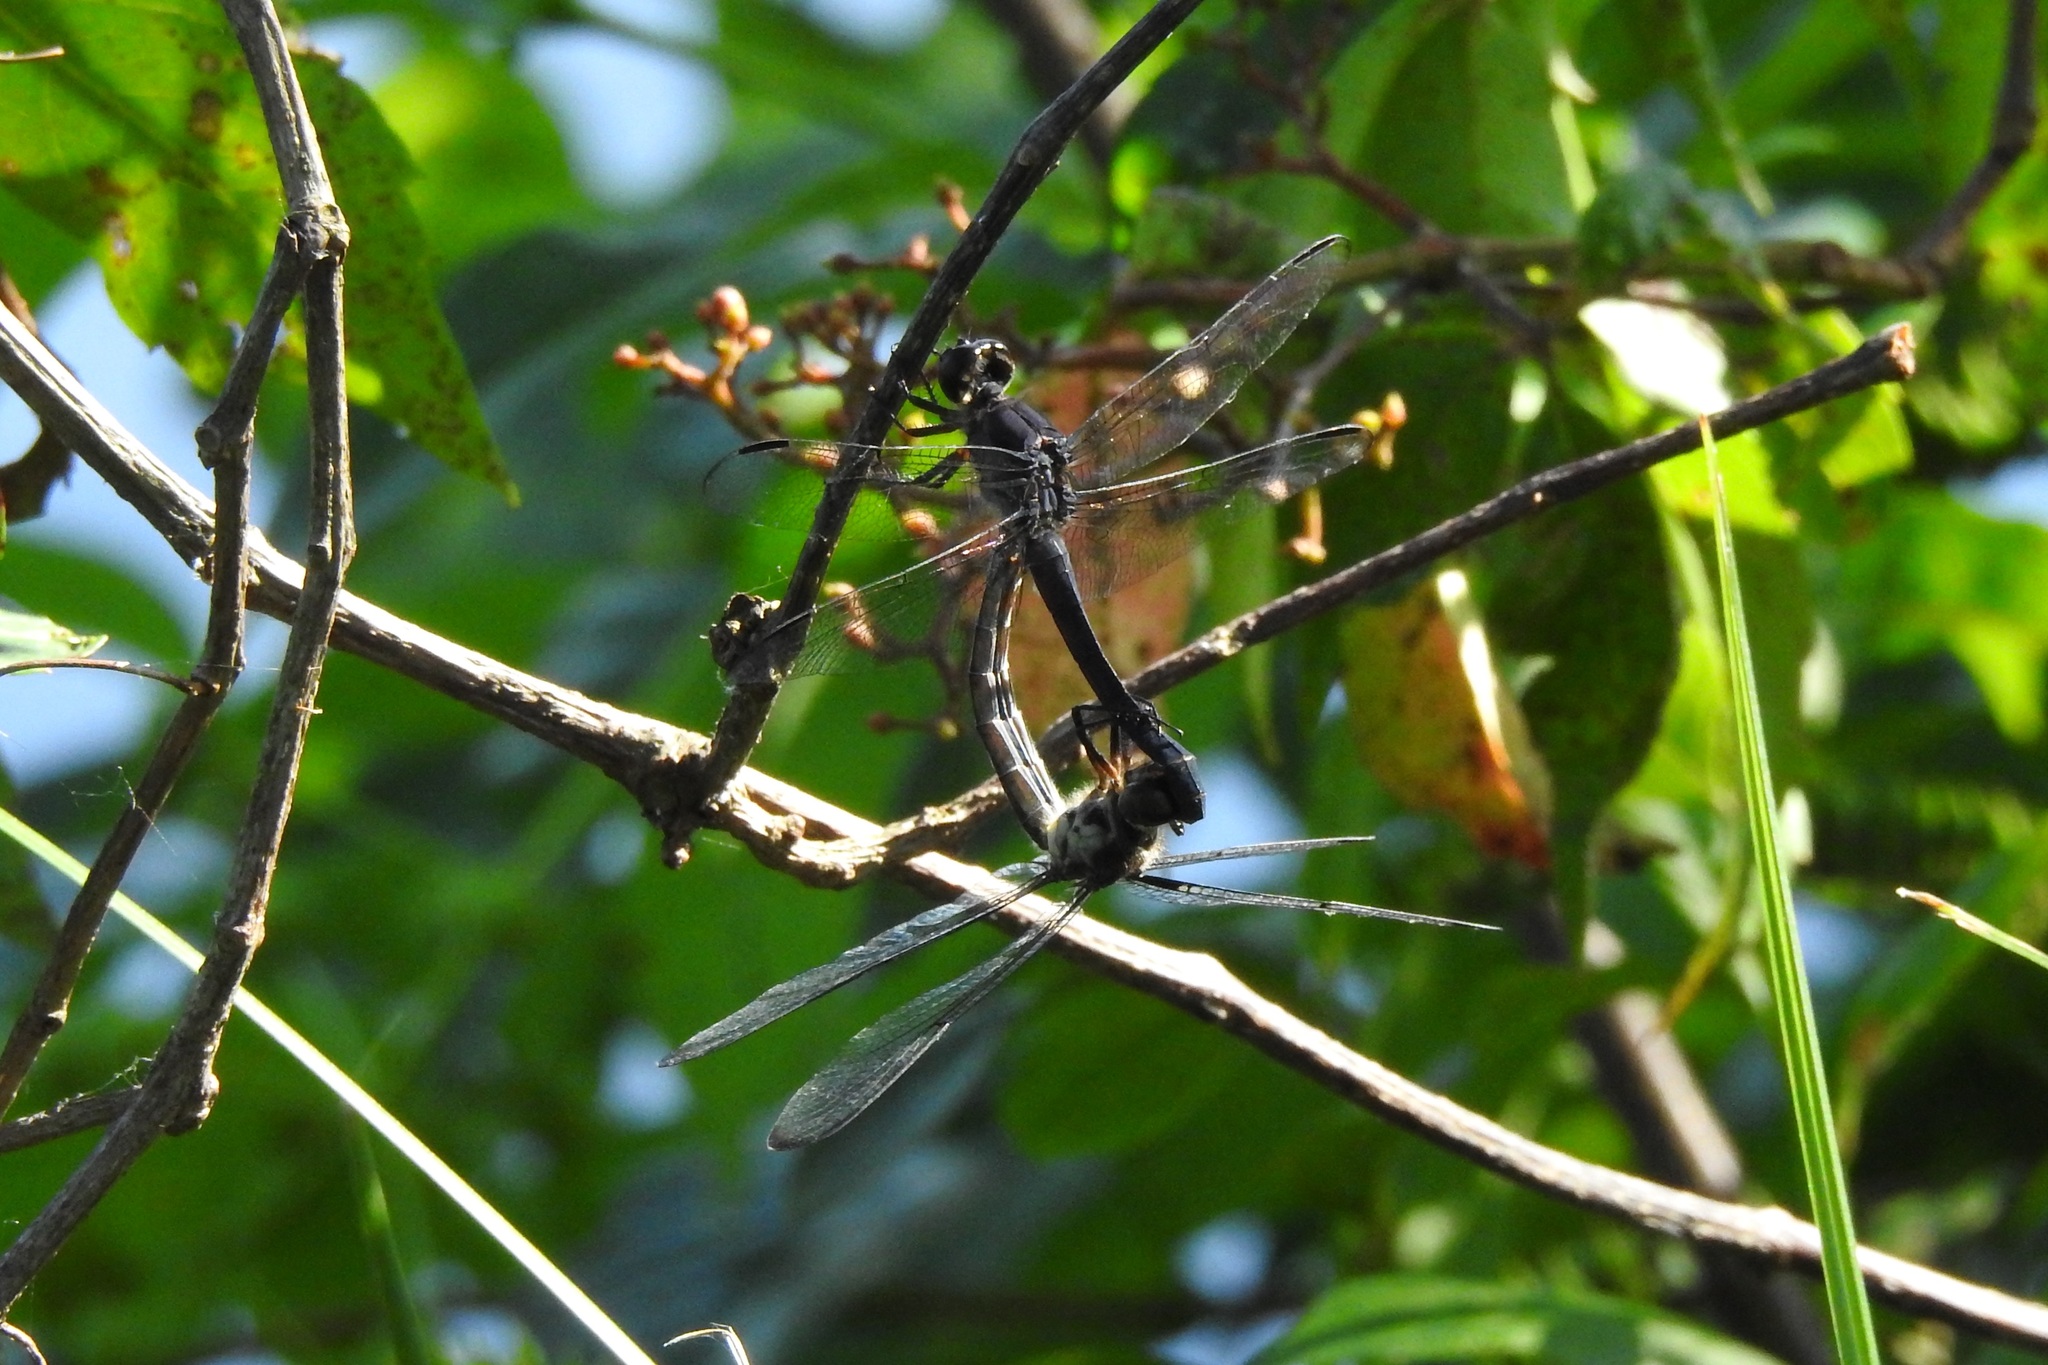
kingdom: Animalia
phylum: Arthropoda
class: Insecta
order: Odonata
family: Libellulidae
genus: Libellula
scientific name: Libellula incesta
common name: Slaty skimmer
